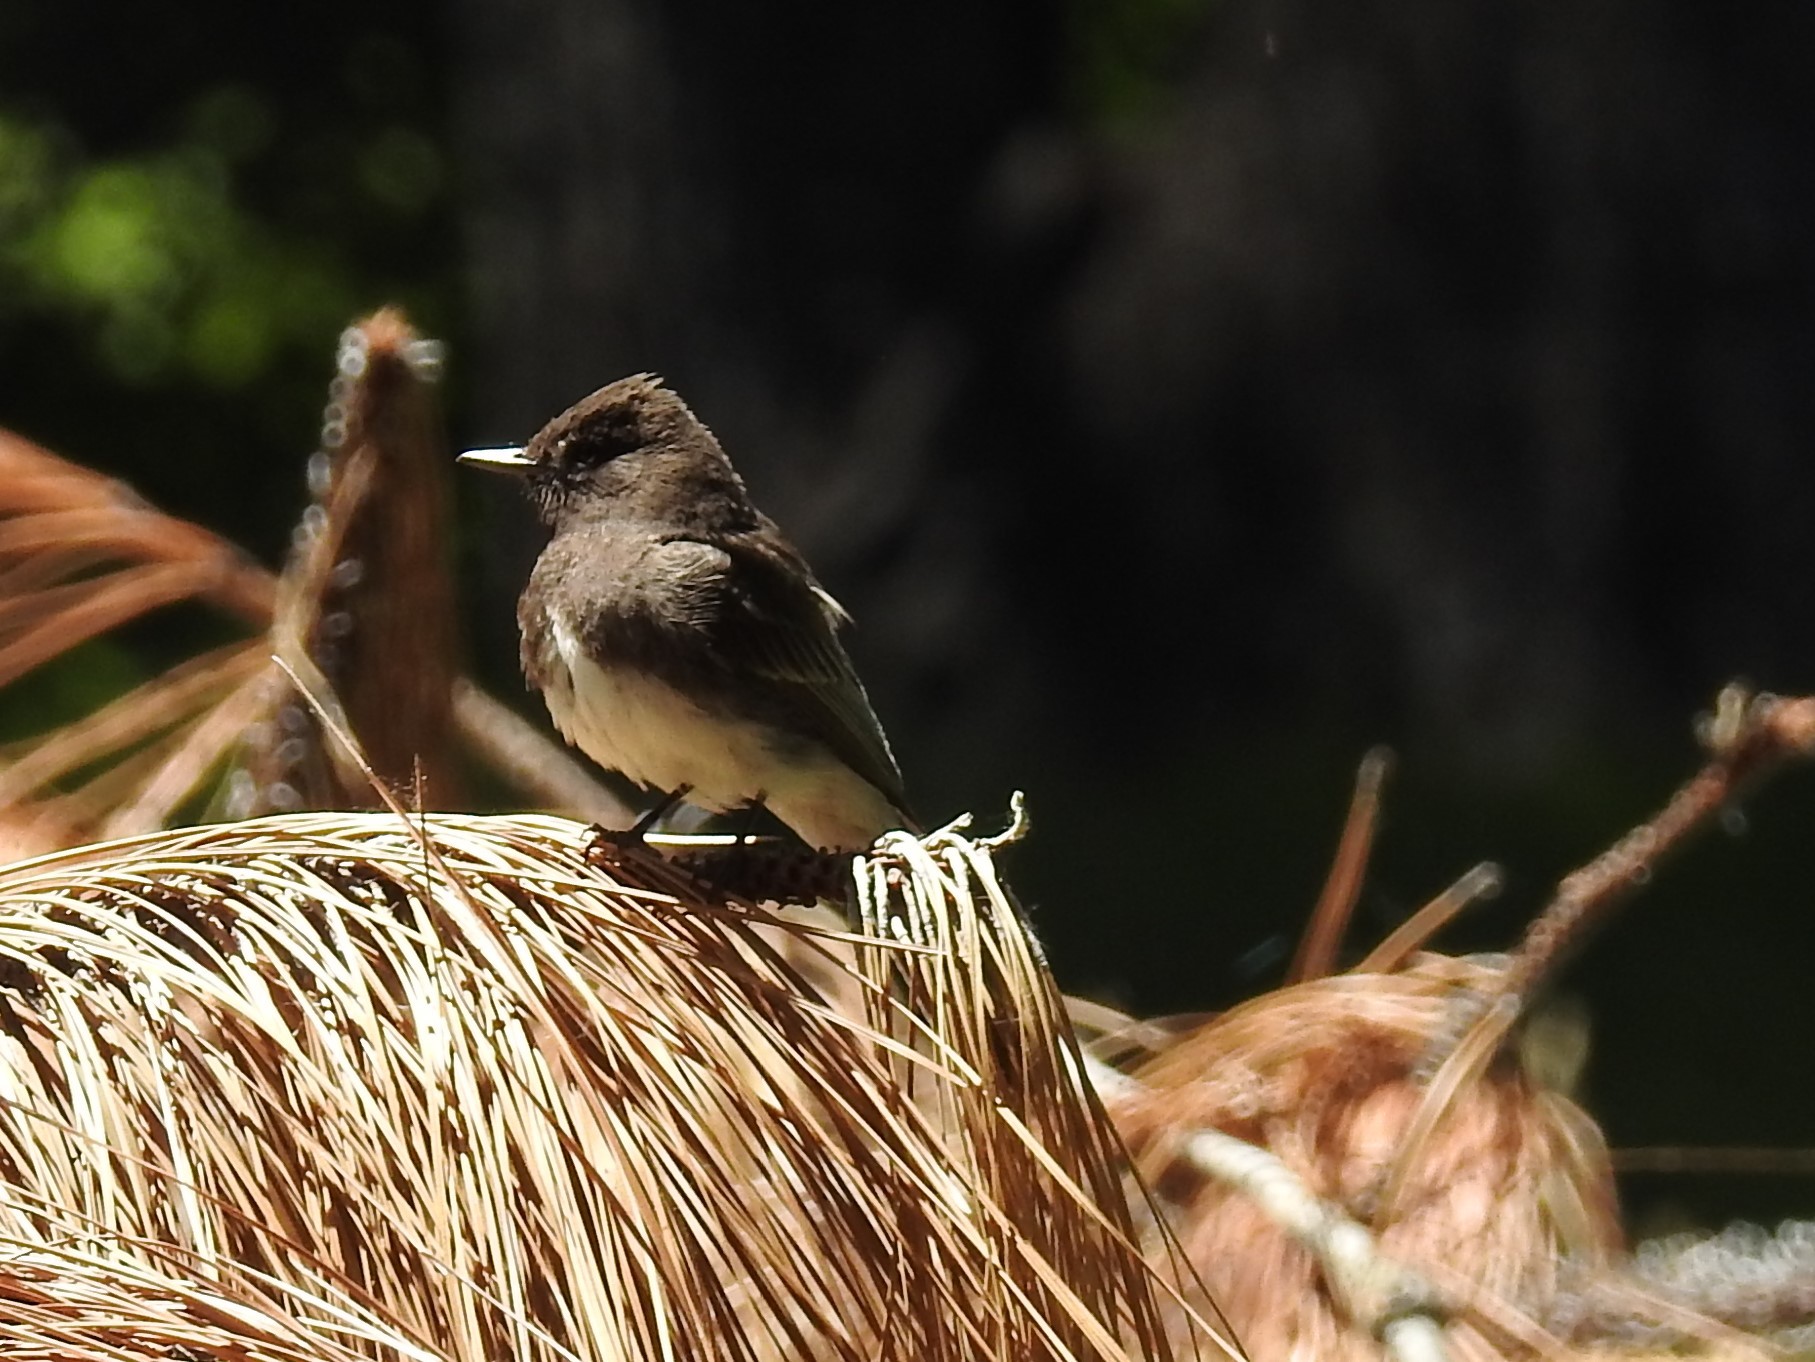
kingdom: Animalia
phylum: Chordata
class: Aves
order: Passeriformes
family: Tyrannidae
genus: Sayornis
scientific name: Sayornis nigricans
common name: Black phoebe
